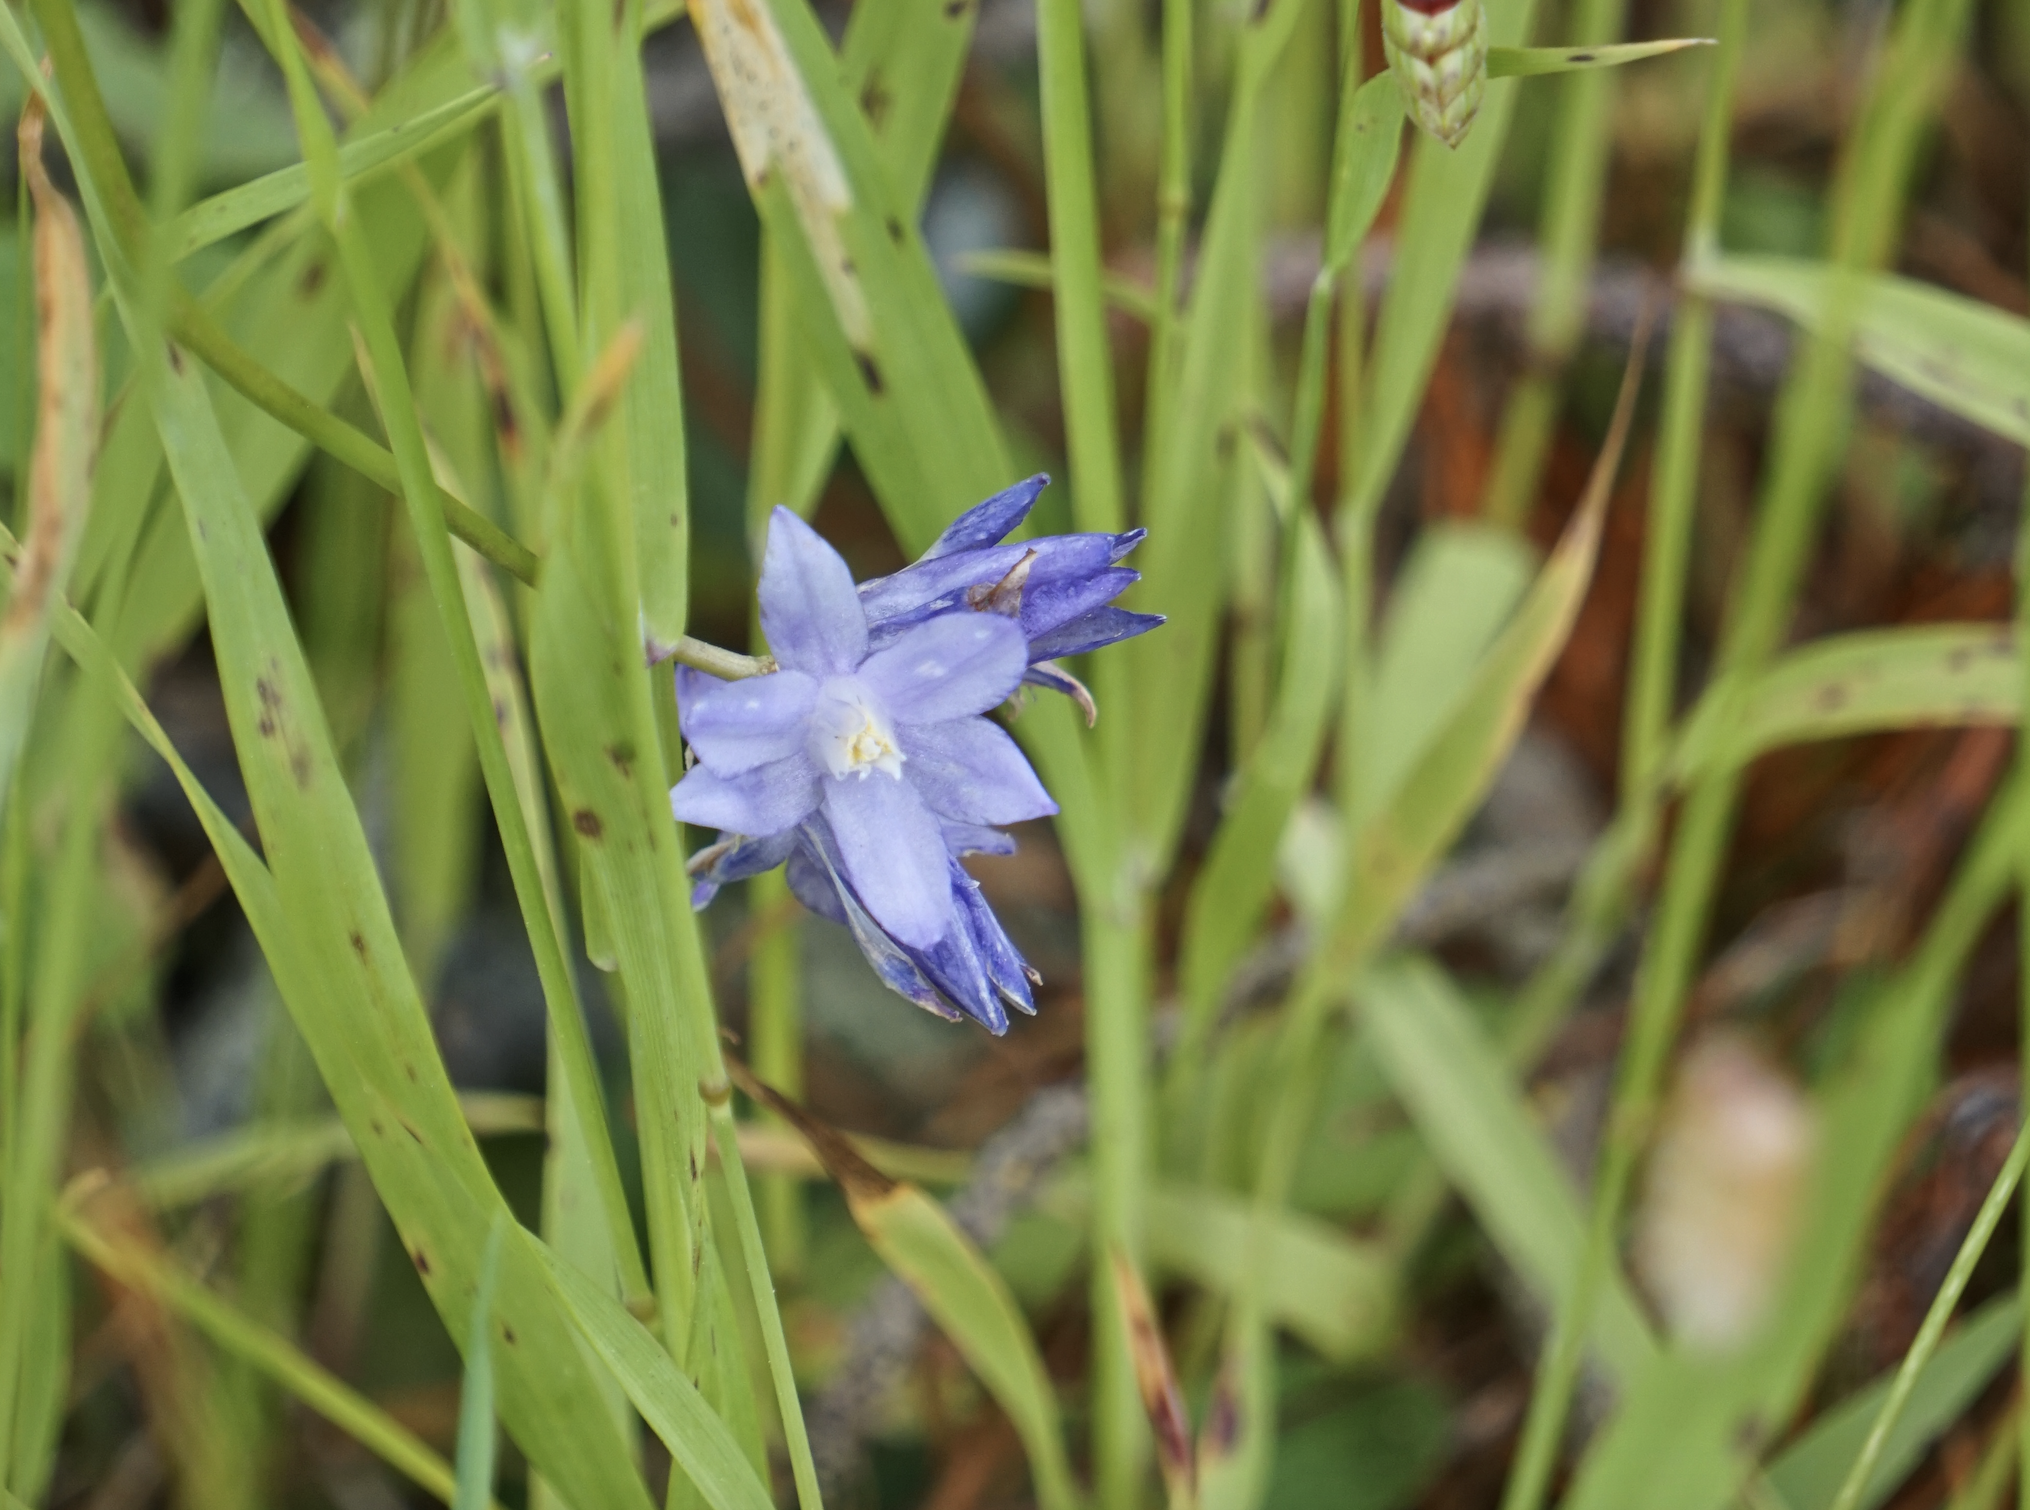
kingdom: Plantae
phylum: Tracheophyta
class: Liliopsida
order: Asparagales
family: Asparagaceae
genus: Dipterostemon
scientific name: Dipterostemon capitatus
